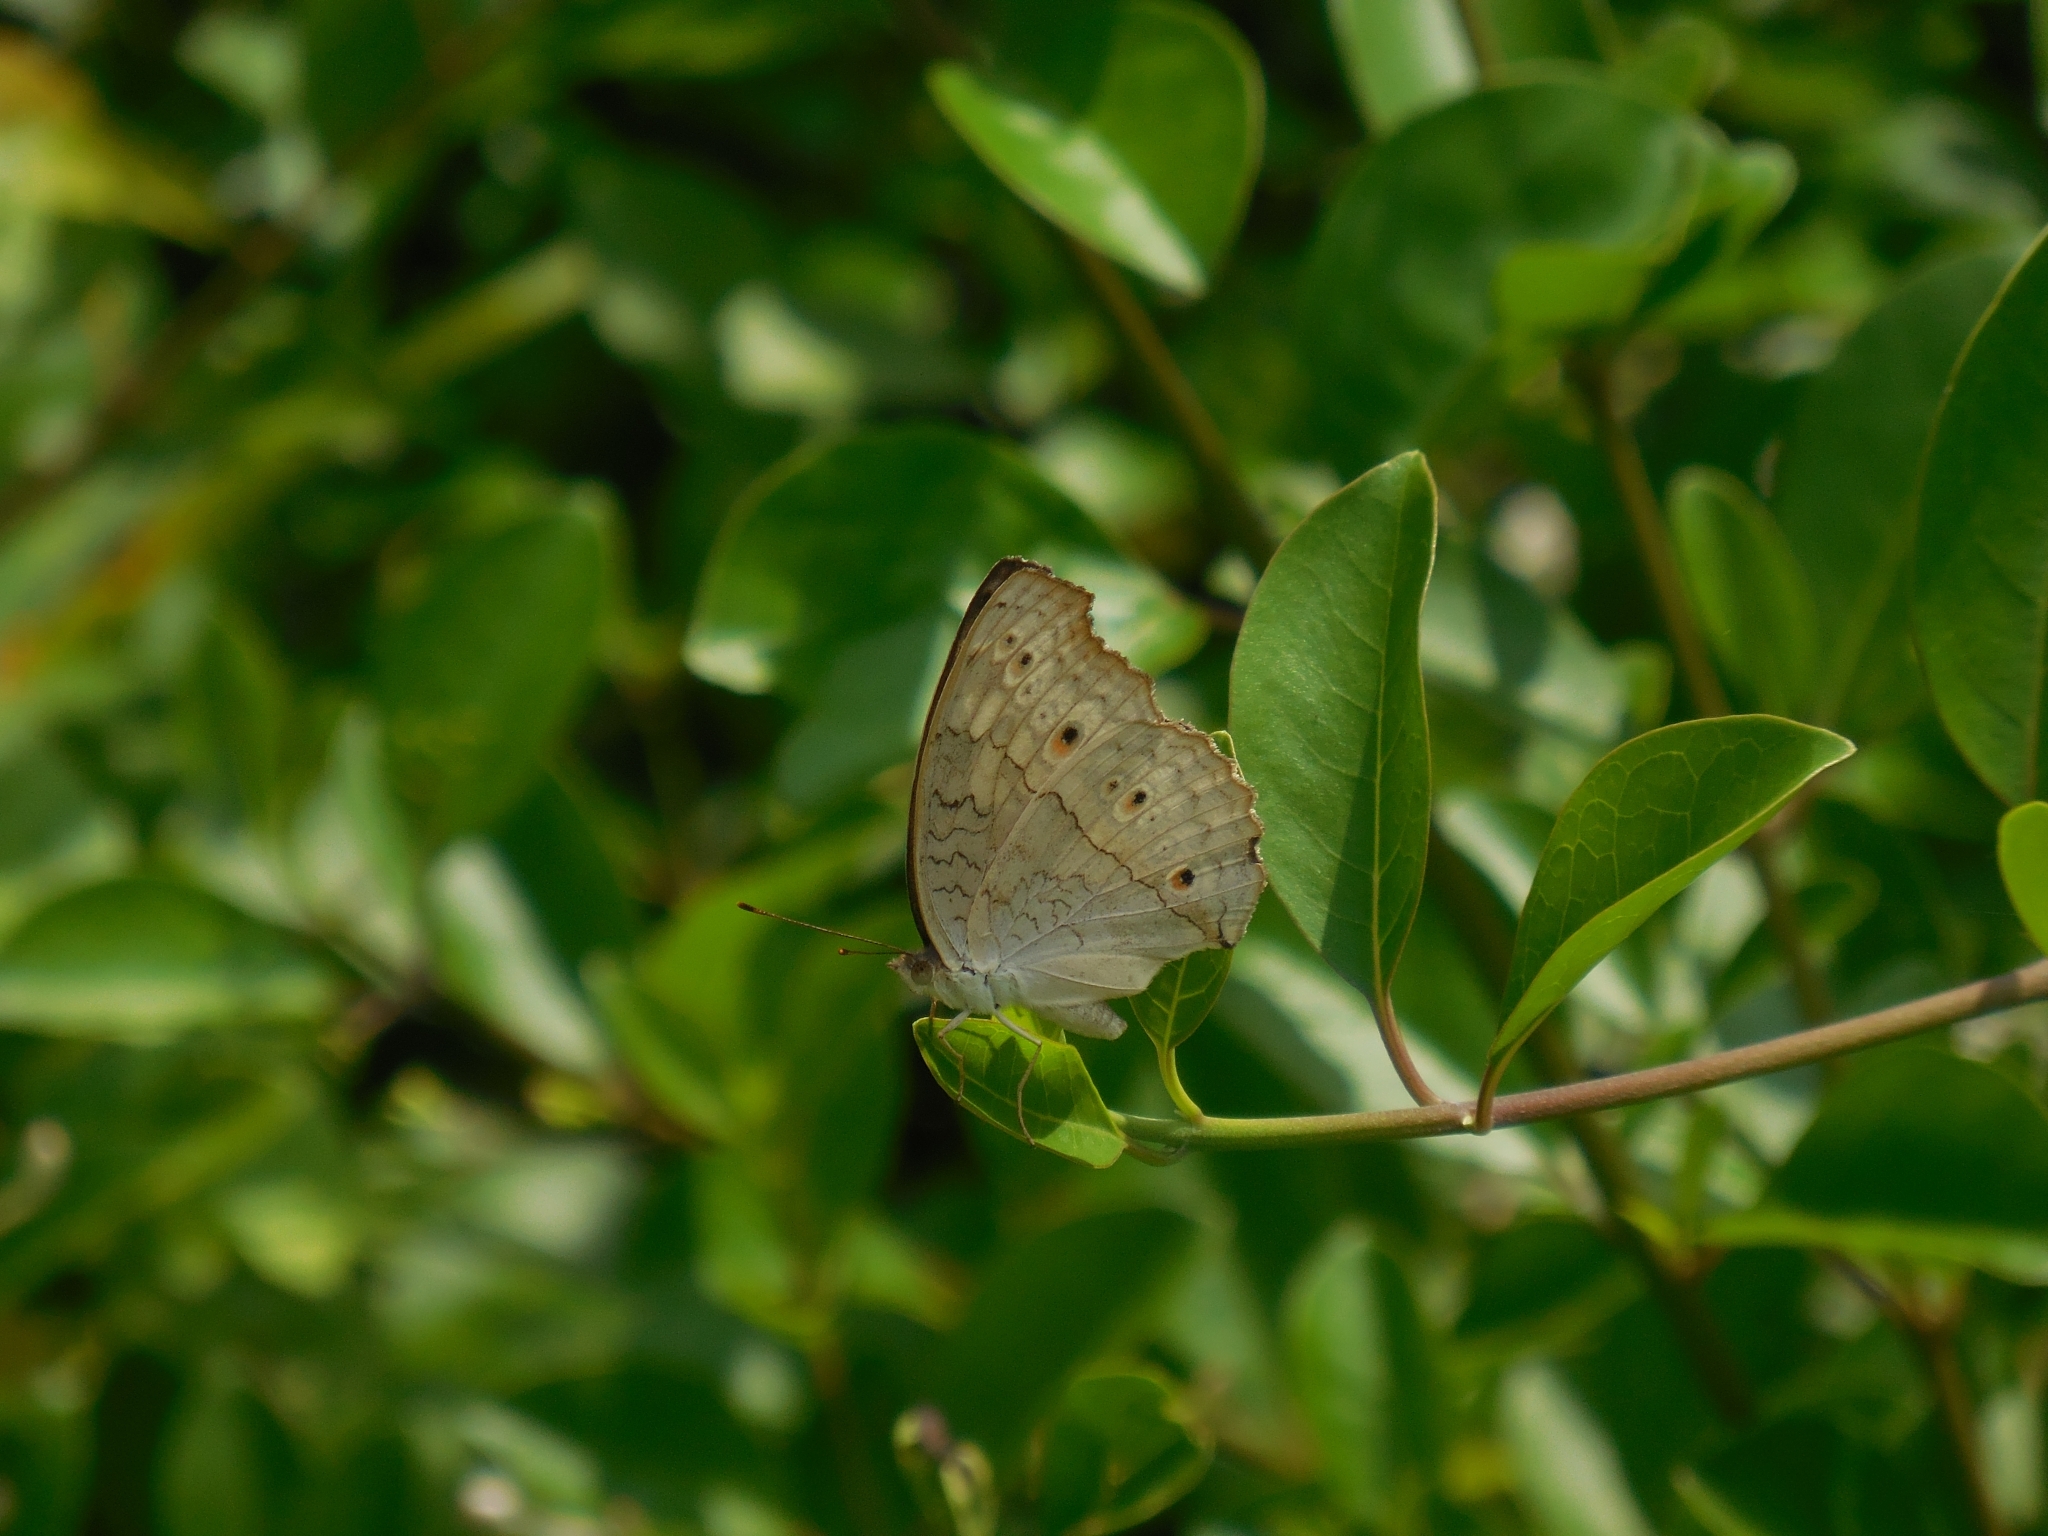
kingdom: Animalia
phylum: Arthropoda
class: Insecta
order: Lepidoptera
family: Nymphalidae
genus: Junonia
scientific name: Junonia atlites
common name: Grey pansy
